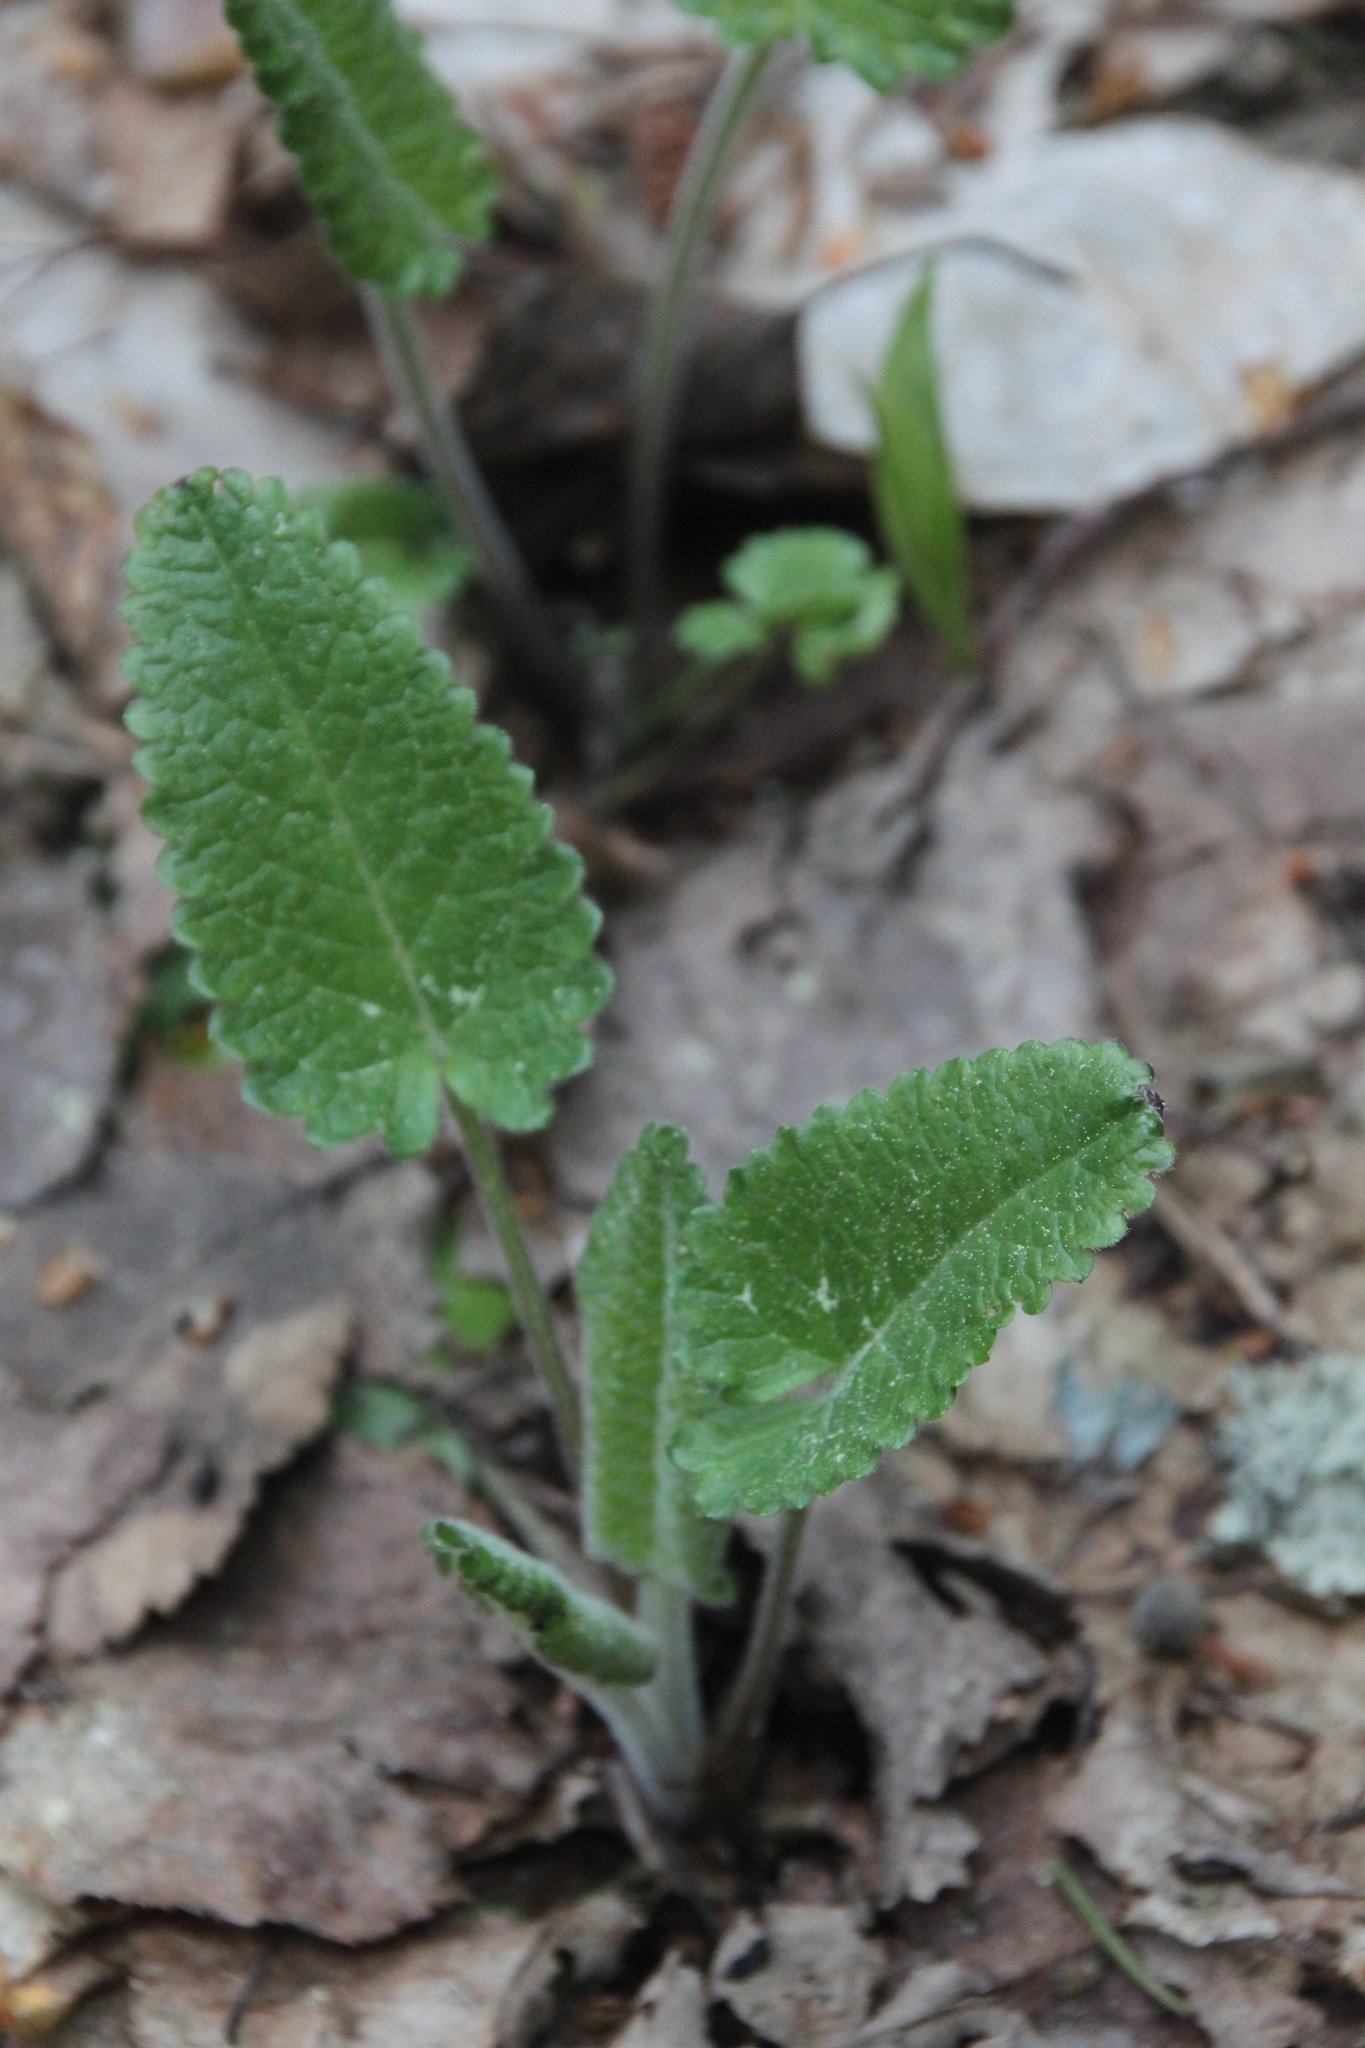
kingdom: Plantae
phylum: Tracheophyta
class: Magnoliopsida
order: Lamiales
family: Lamiaceae
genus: Betonica
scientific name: Betonica officinalis
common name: Bishop's-wort
